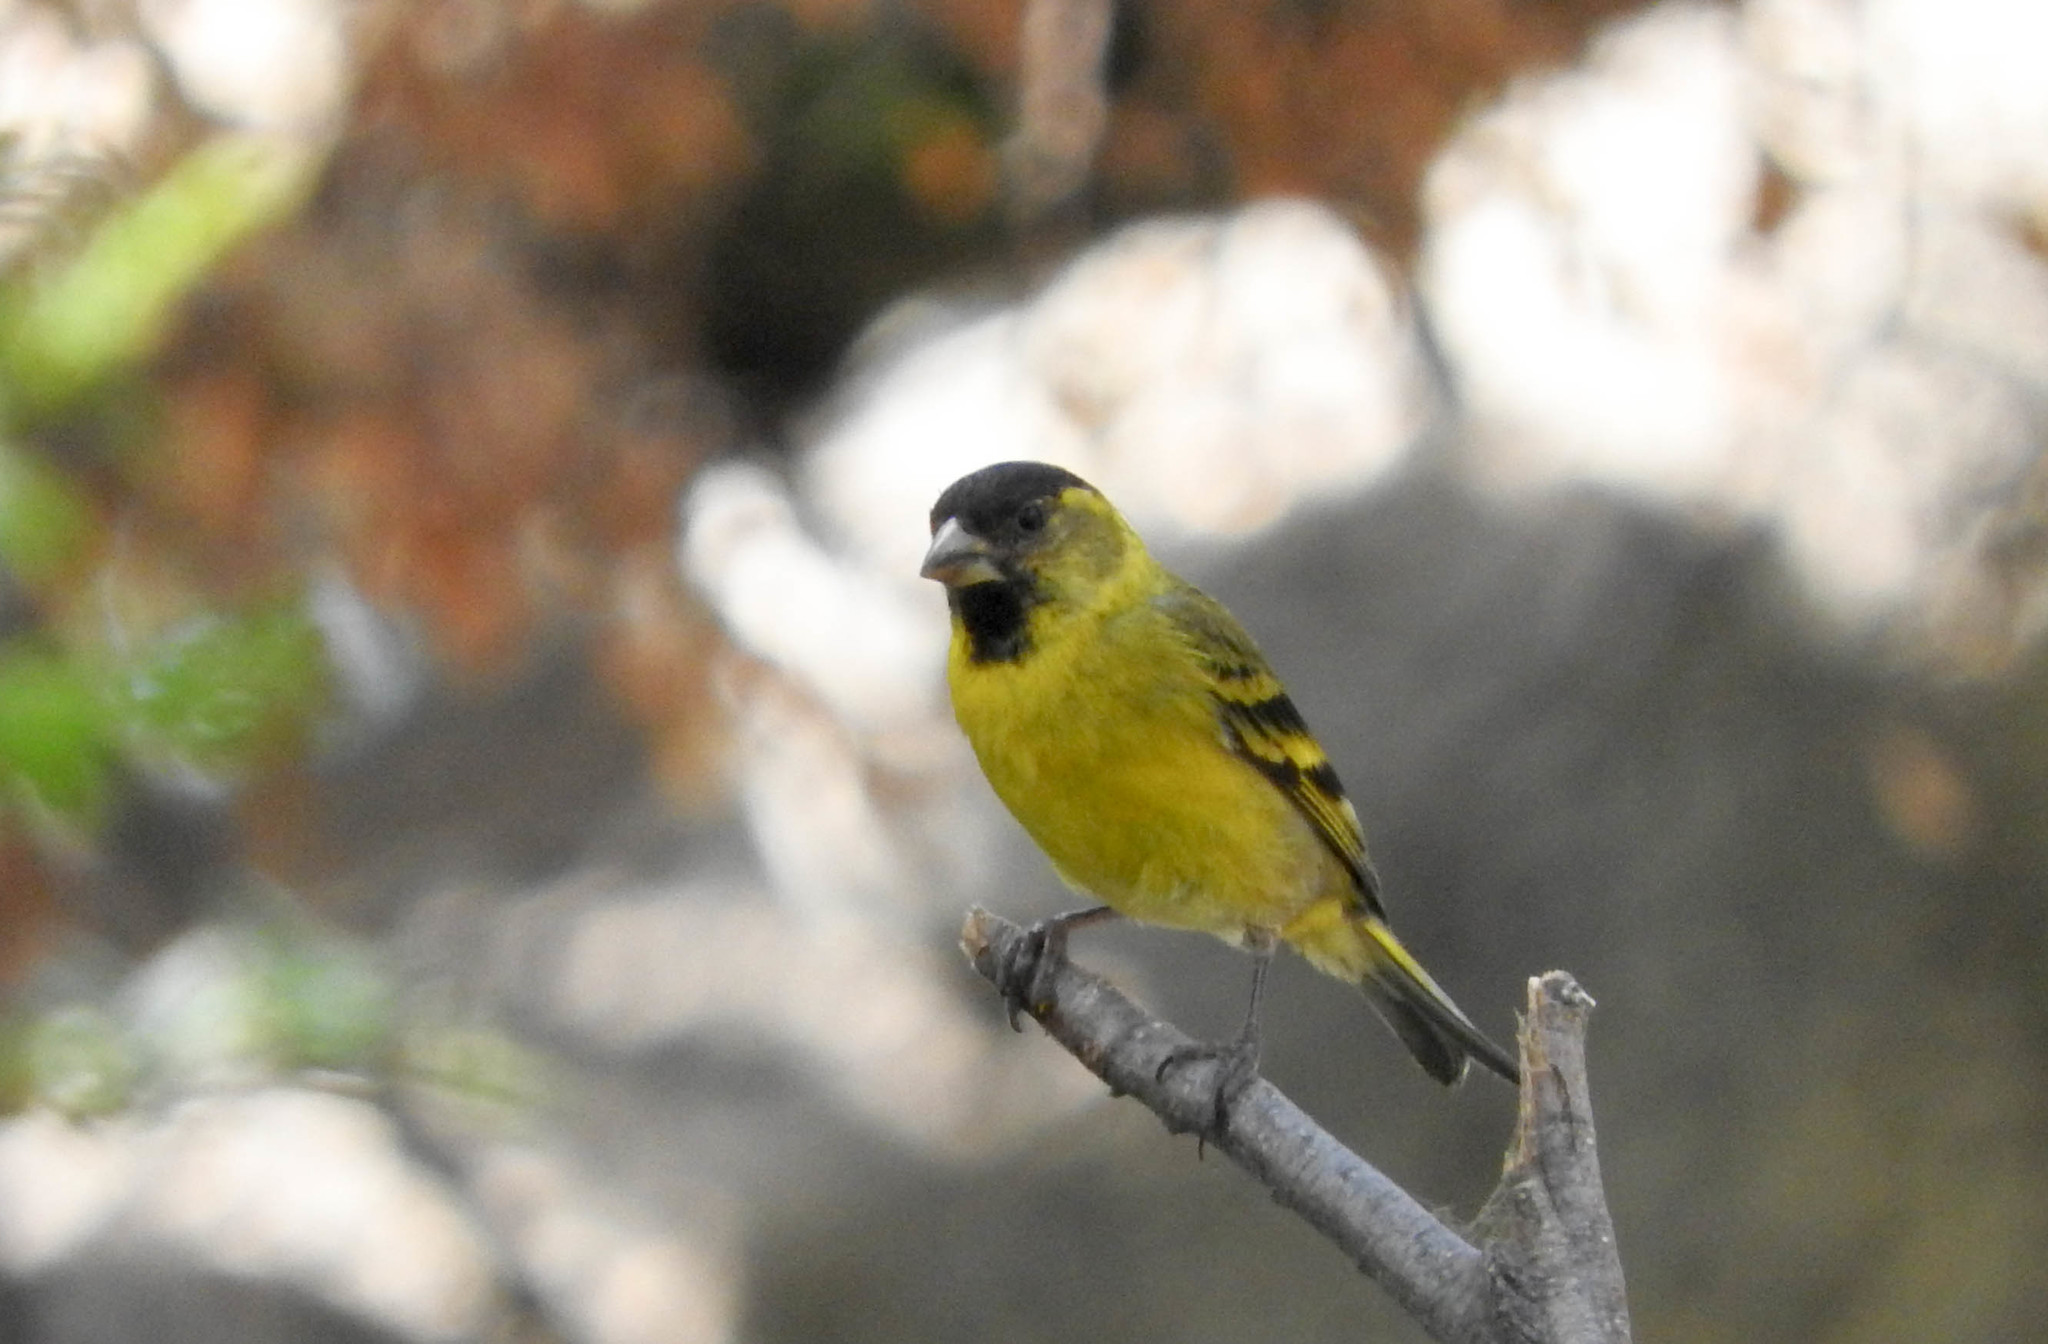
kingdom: Animalia
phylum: Chordata
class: Aves
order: Passeriformes
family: Fringillidae
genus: Spinus
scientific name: Spinus barbatus
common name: Black-chinned siskin
